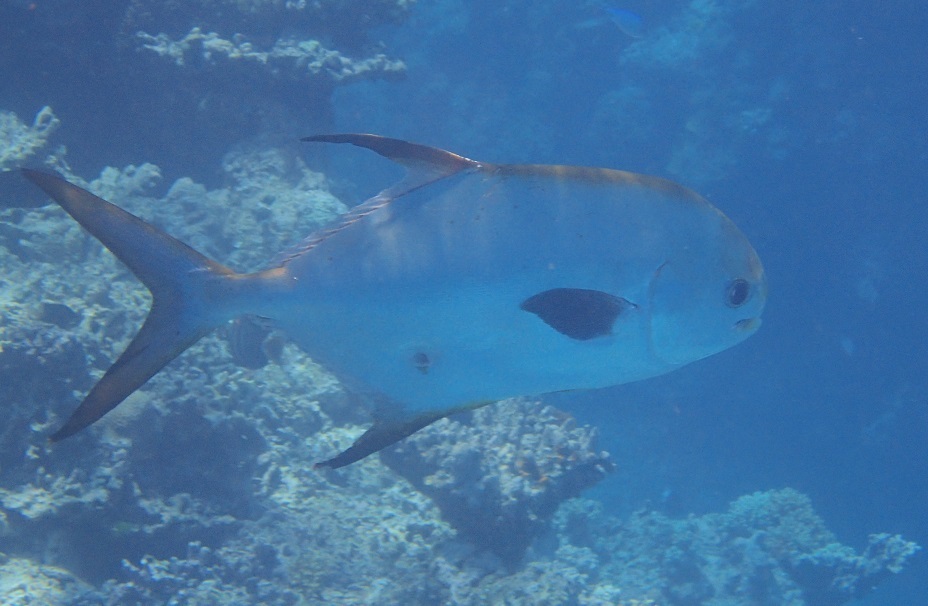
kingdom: Animalia
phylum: Chordata
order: Perciformes
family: Carangidae
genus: Trachinotus
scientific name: Trachinotus blochii
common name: Snubnose pompano
